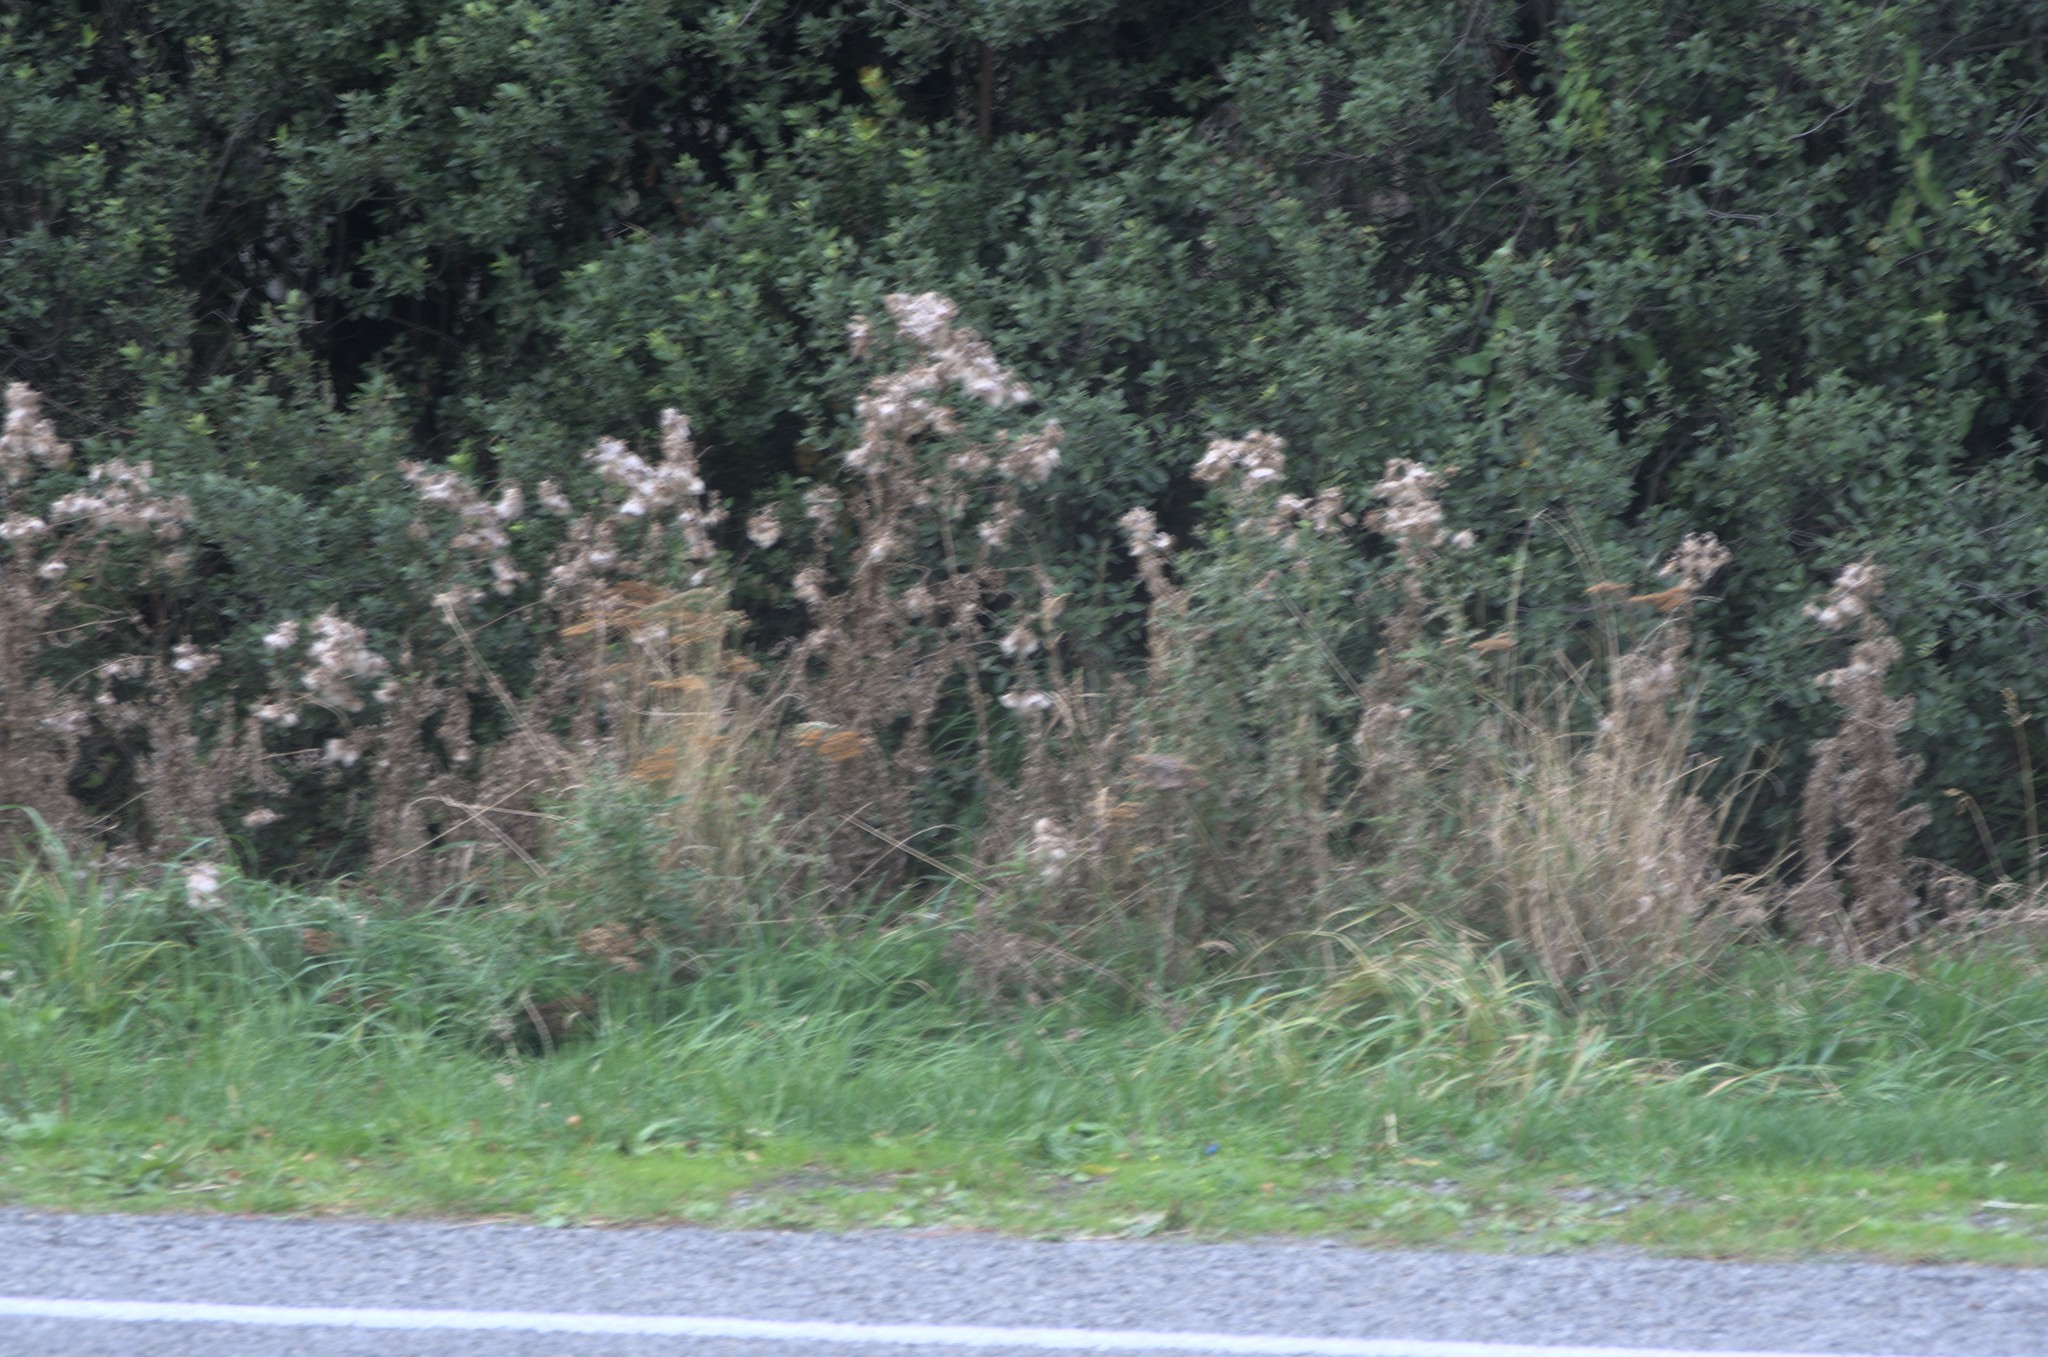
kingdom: Plantae
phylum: Tracheophyta
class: Magnoliopsida
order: Asterales
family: Asteraceae
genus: Cirsium
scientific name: Cirsium vulgare
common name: Bull thistle
